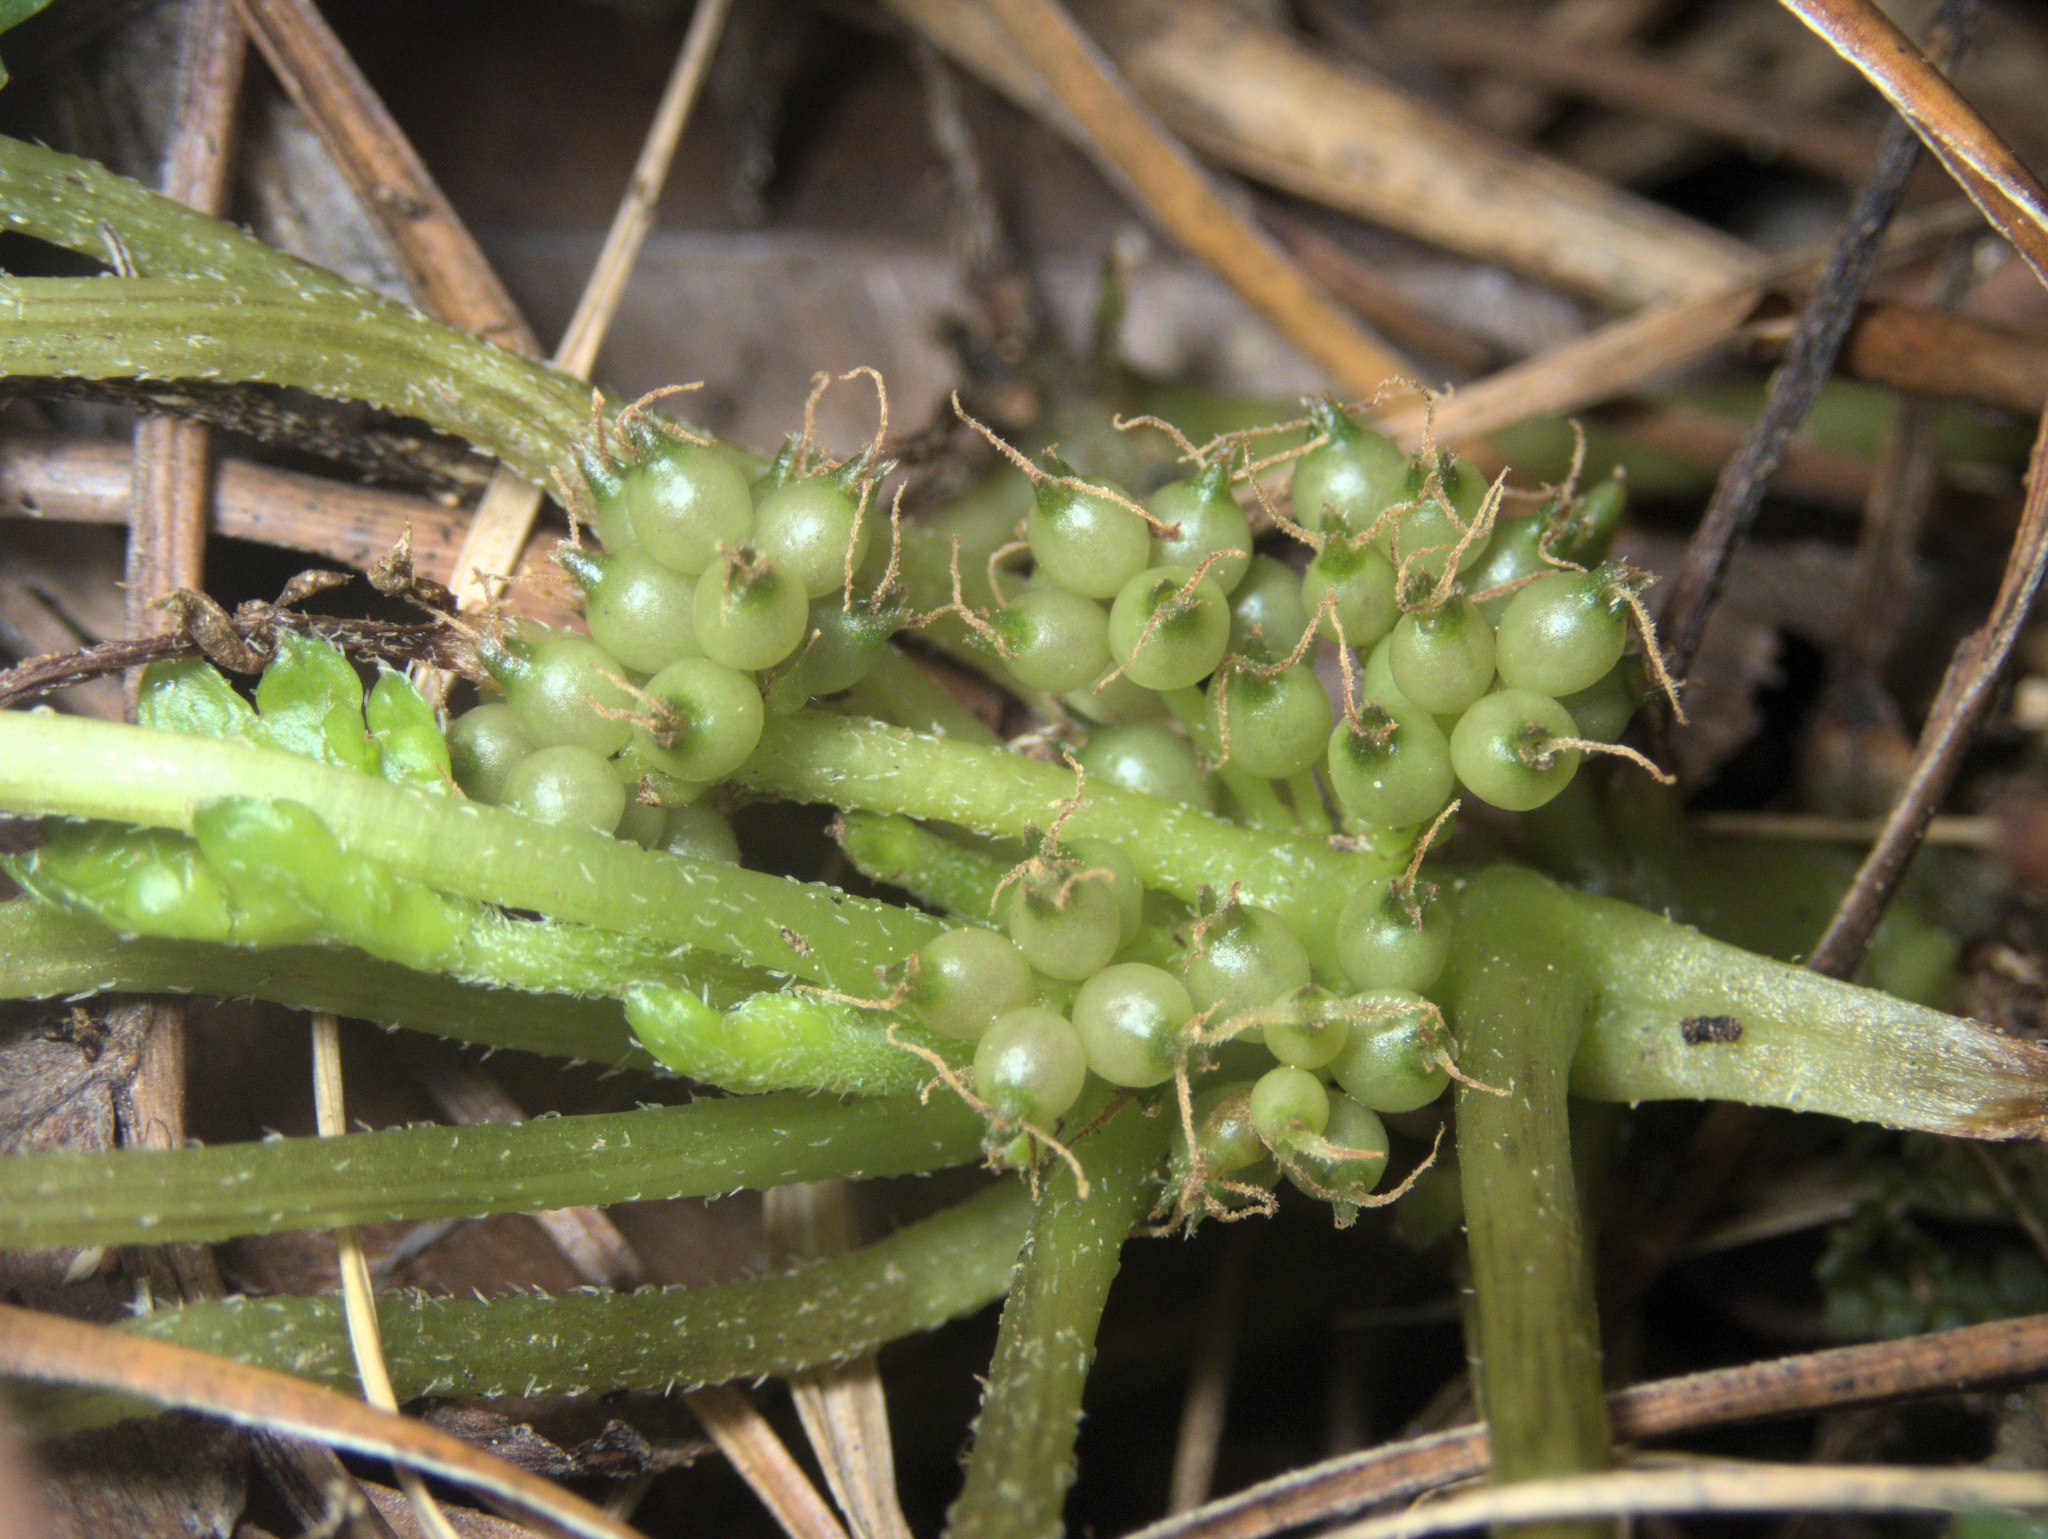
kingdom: Plantae
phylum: Tracheophyta
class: Magnoliopsida
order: Gunnerales
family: Gunneraceae
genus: Gunnera
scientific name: Gunnera monoica
